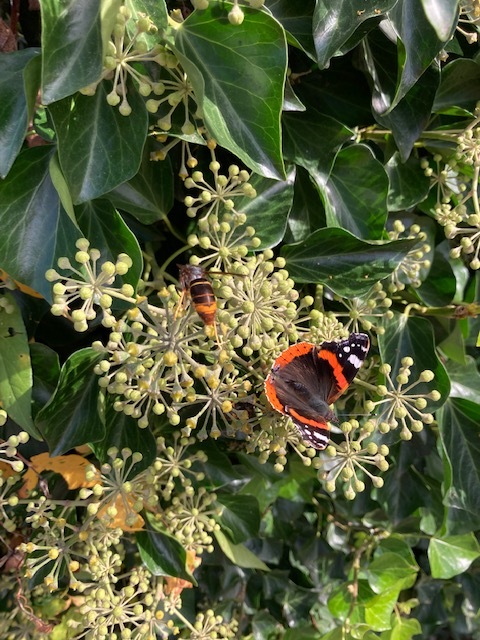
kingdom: Animalia
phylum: Arthropoda
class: Insecta
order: Hymenoptera
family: Vespidae
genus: Vespa
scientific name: Vespa velutina
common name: Asian hornet
